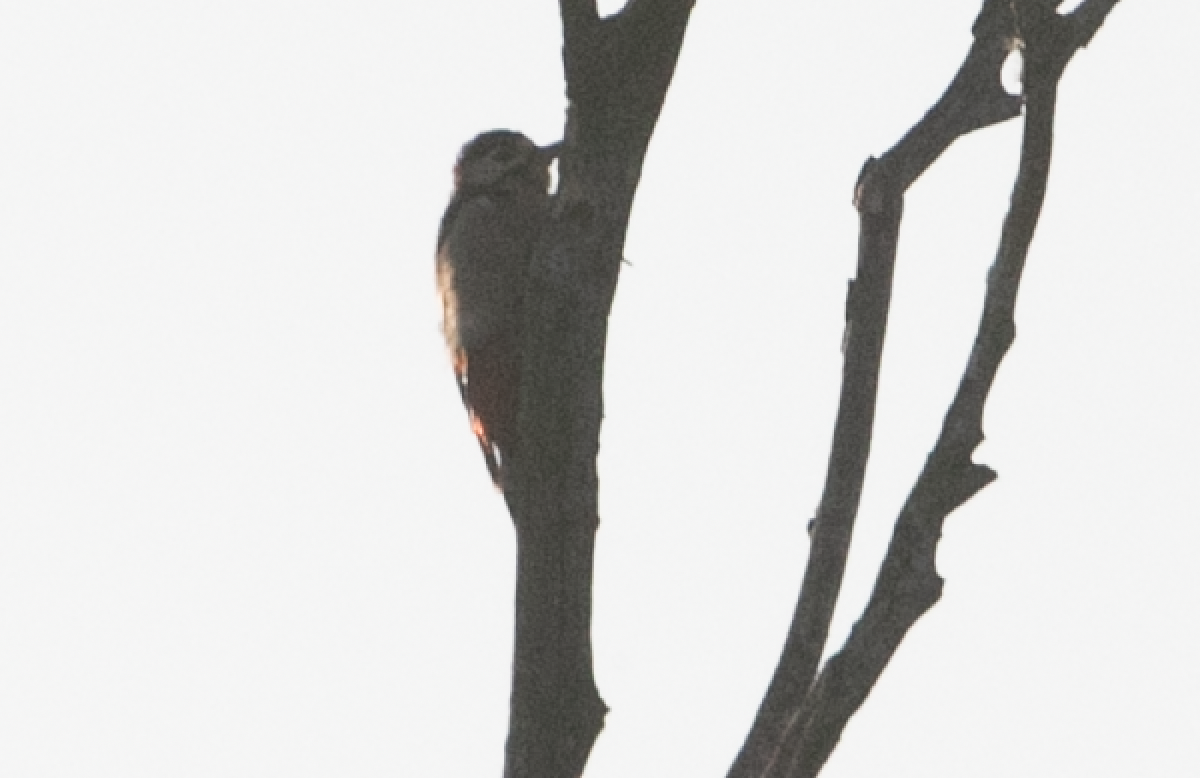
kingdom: Animalia
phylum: Chordata
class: Aves
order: Piciformes
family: Picidae
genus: Dendrocopos
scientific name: Dendrocopos major
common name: Great spotted woodpecker
